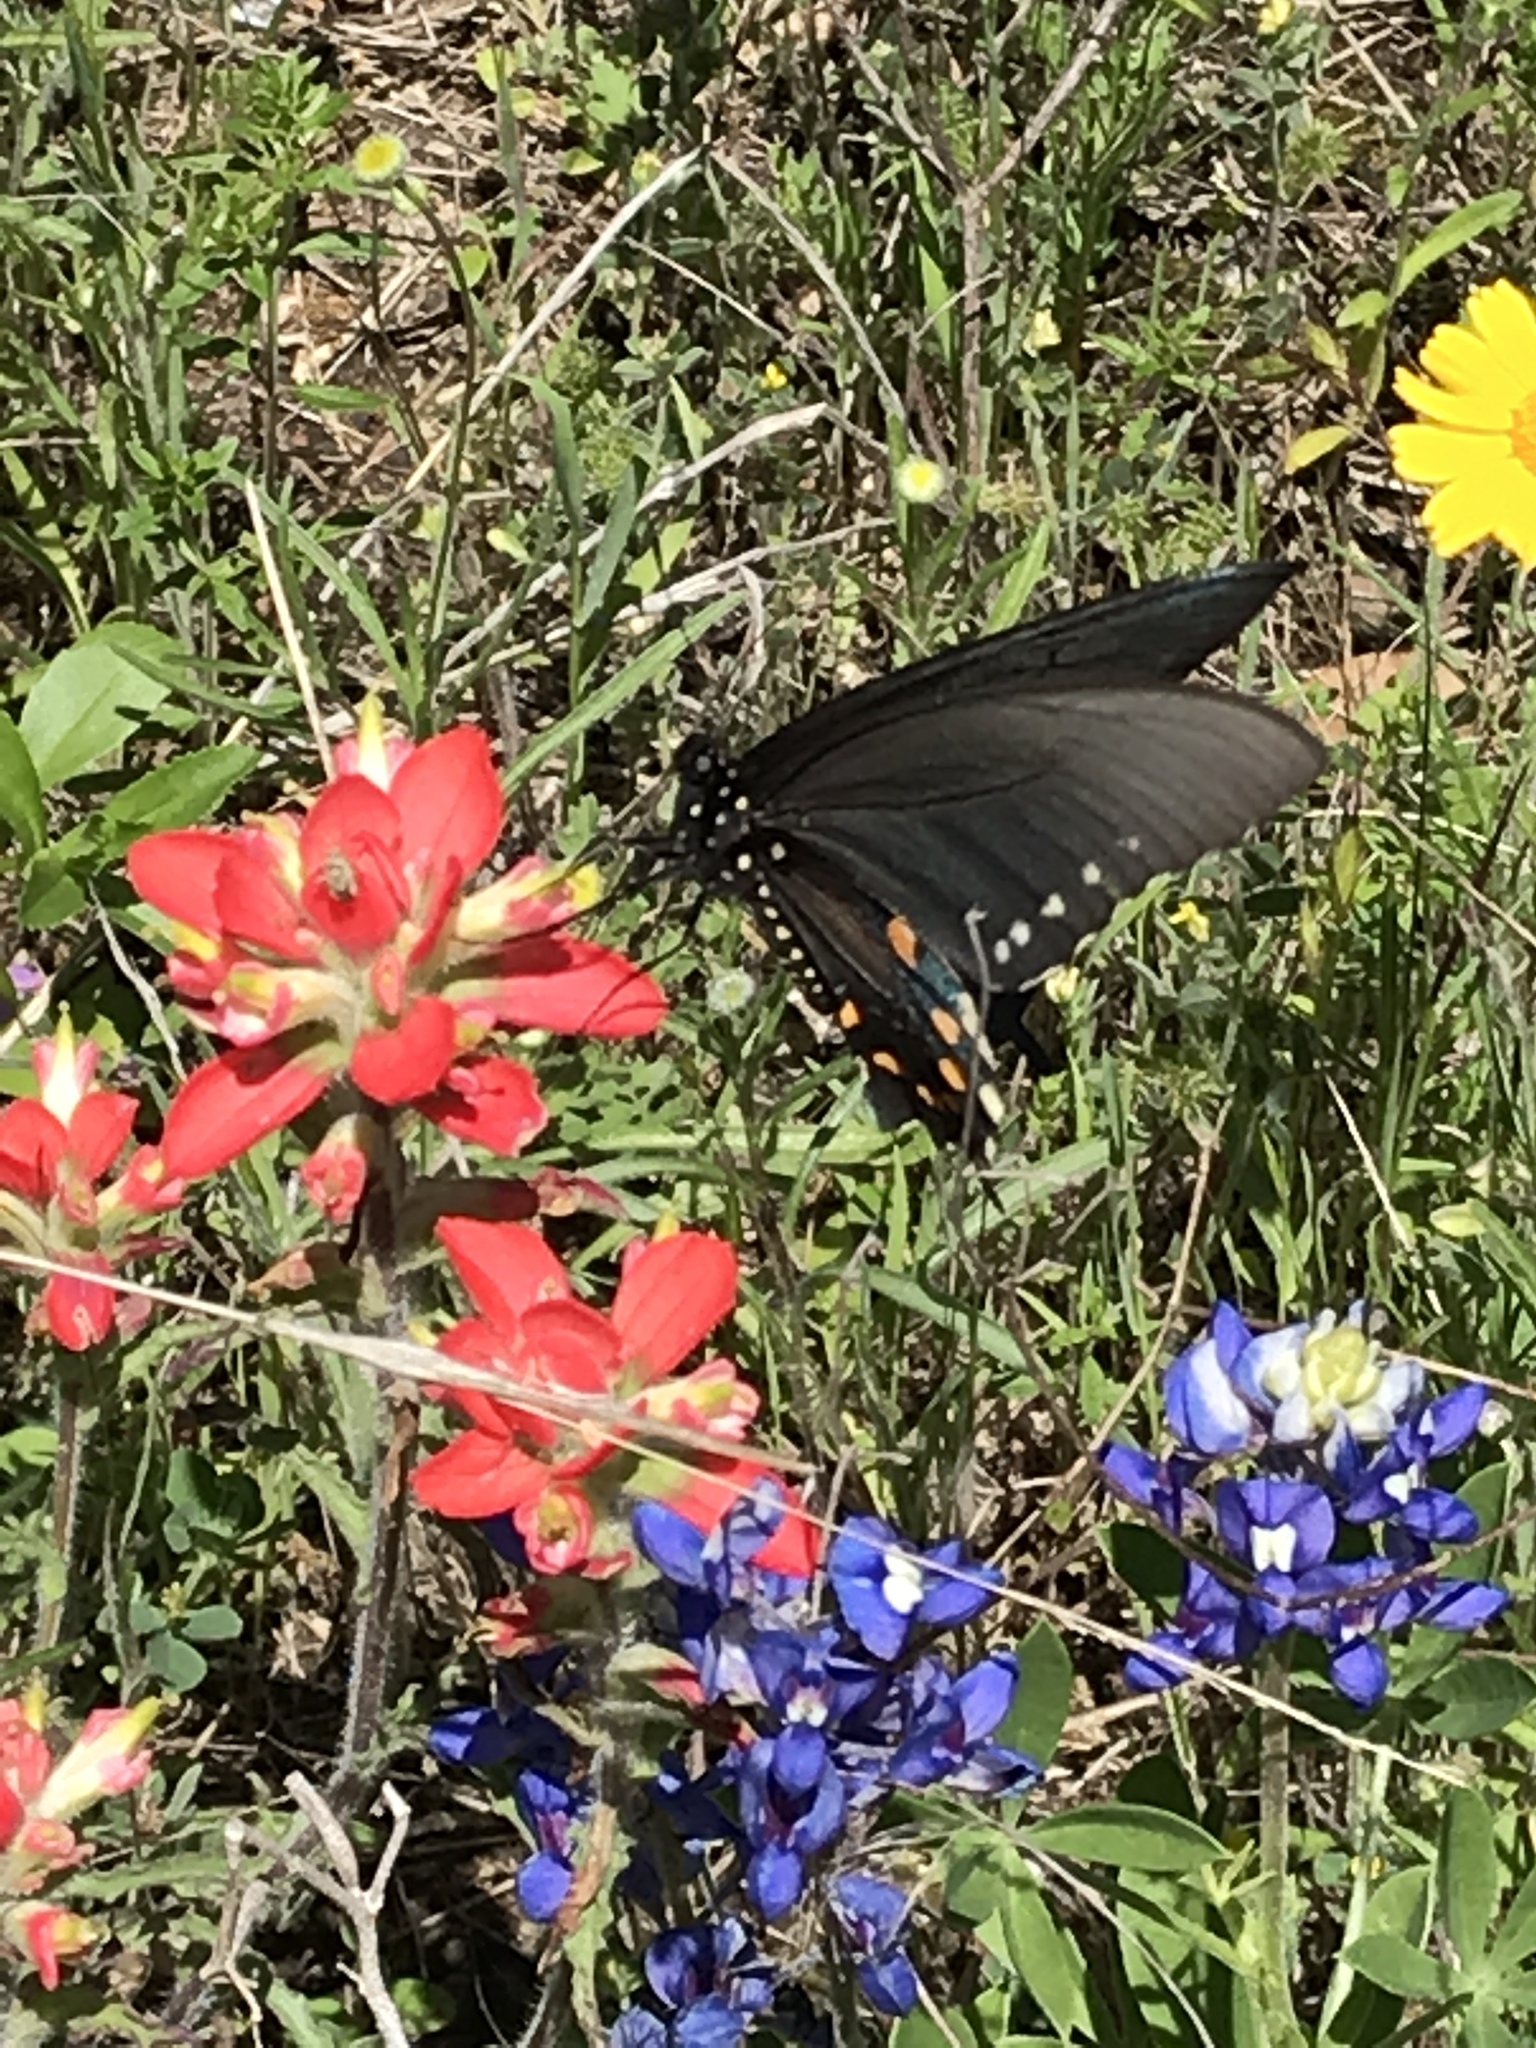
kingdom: Animalia
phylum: Arthropoda
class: Insecta
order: Lepidoptera
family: Papilionidae
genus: Battus
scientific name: Battus philenor
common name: Pipevine swallowtail
